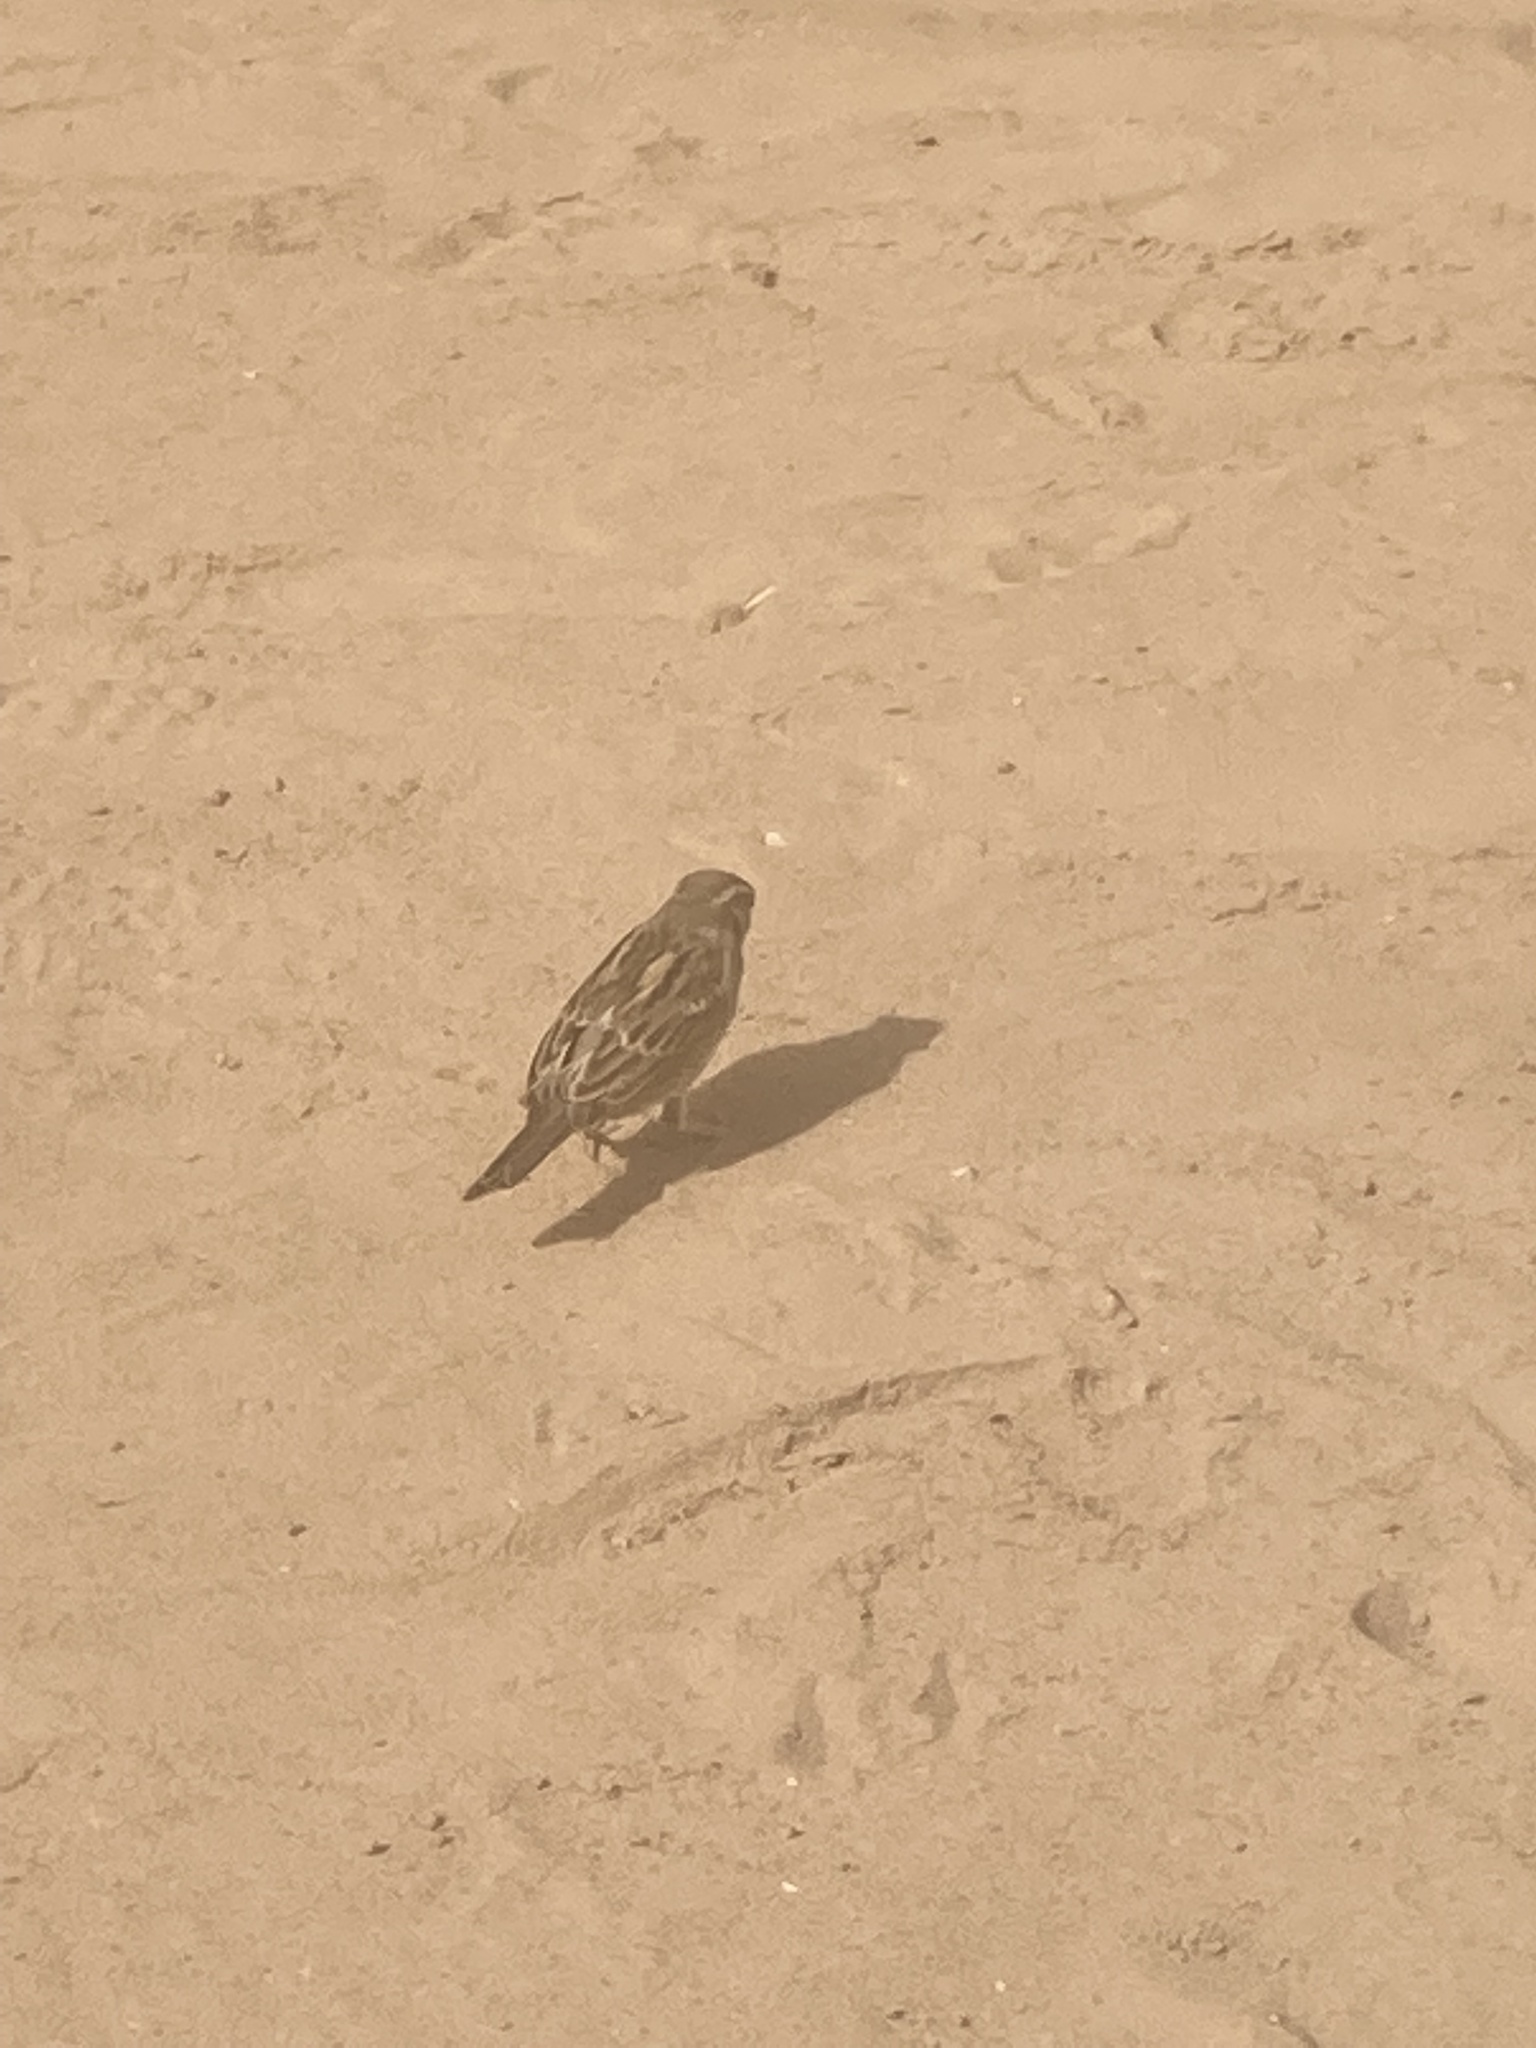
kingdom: Animalia
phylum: Chordata
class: Aves
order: Passeriformes
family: Passeridae
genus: Passer
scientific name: Passer domesticus
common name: House sparrow
